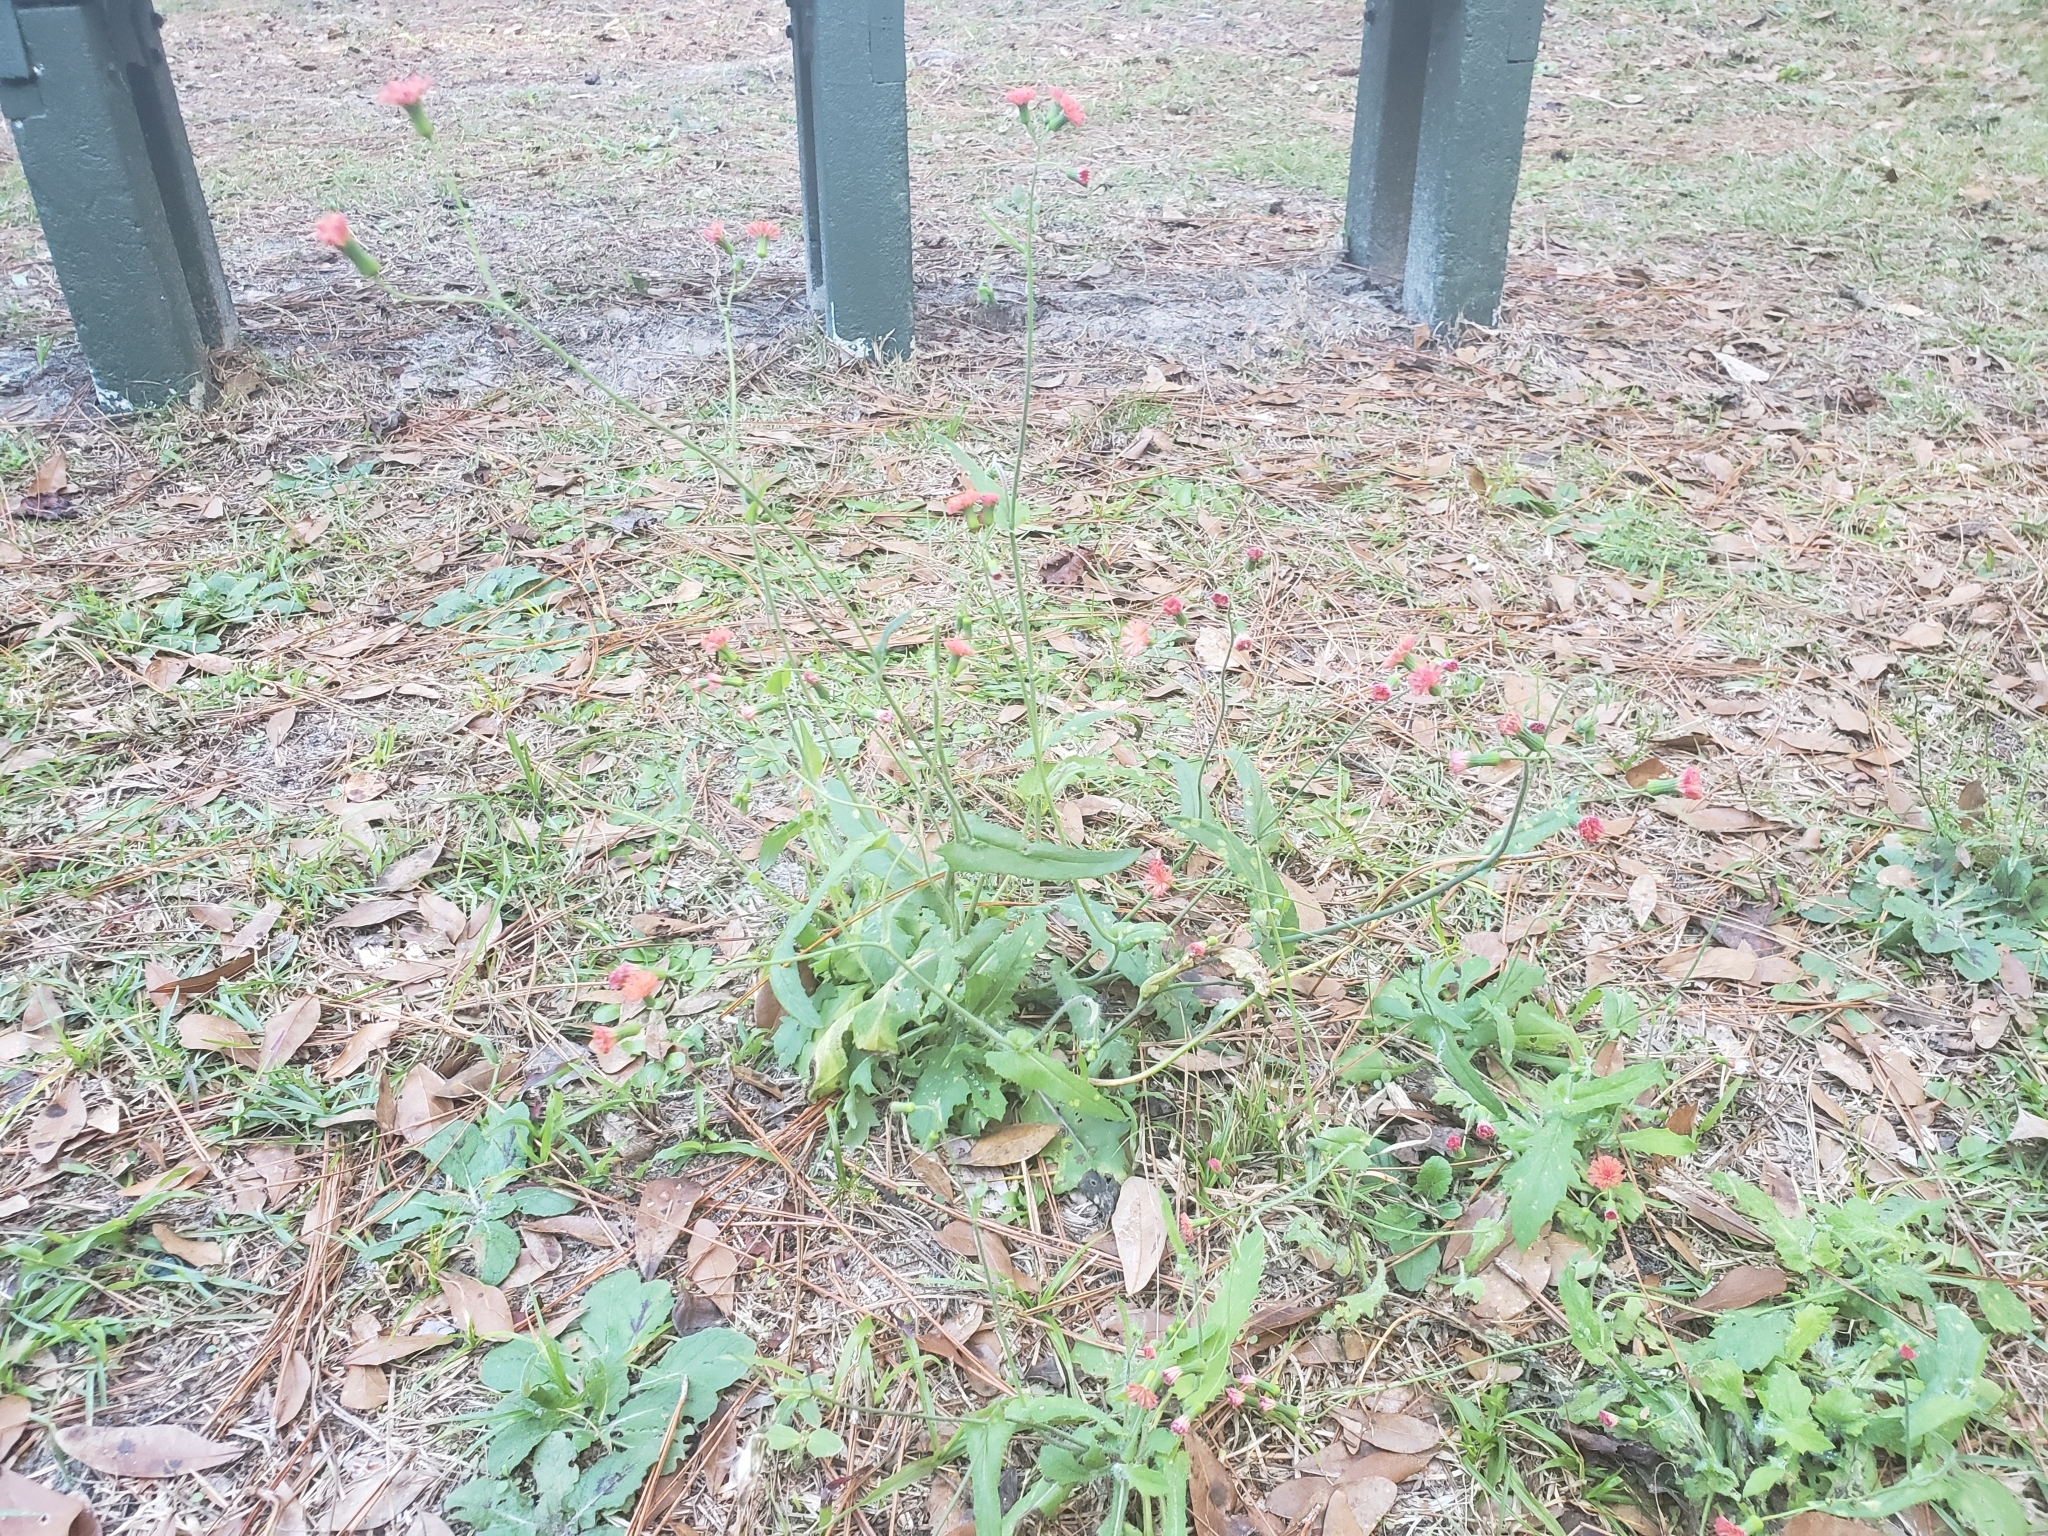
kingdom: Plantae
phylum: Tracheophyta
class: Magnoliopsida
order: Asterales
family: Asteraceae
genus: Emilia
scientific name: Emilia fosbergii
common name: Florida tasselflower
